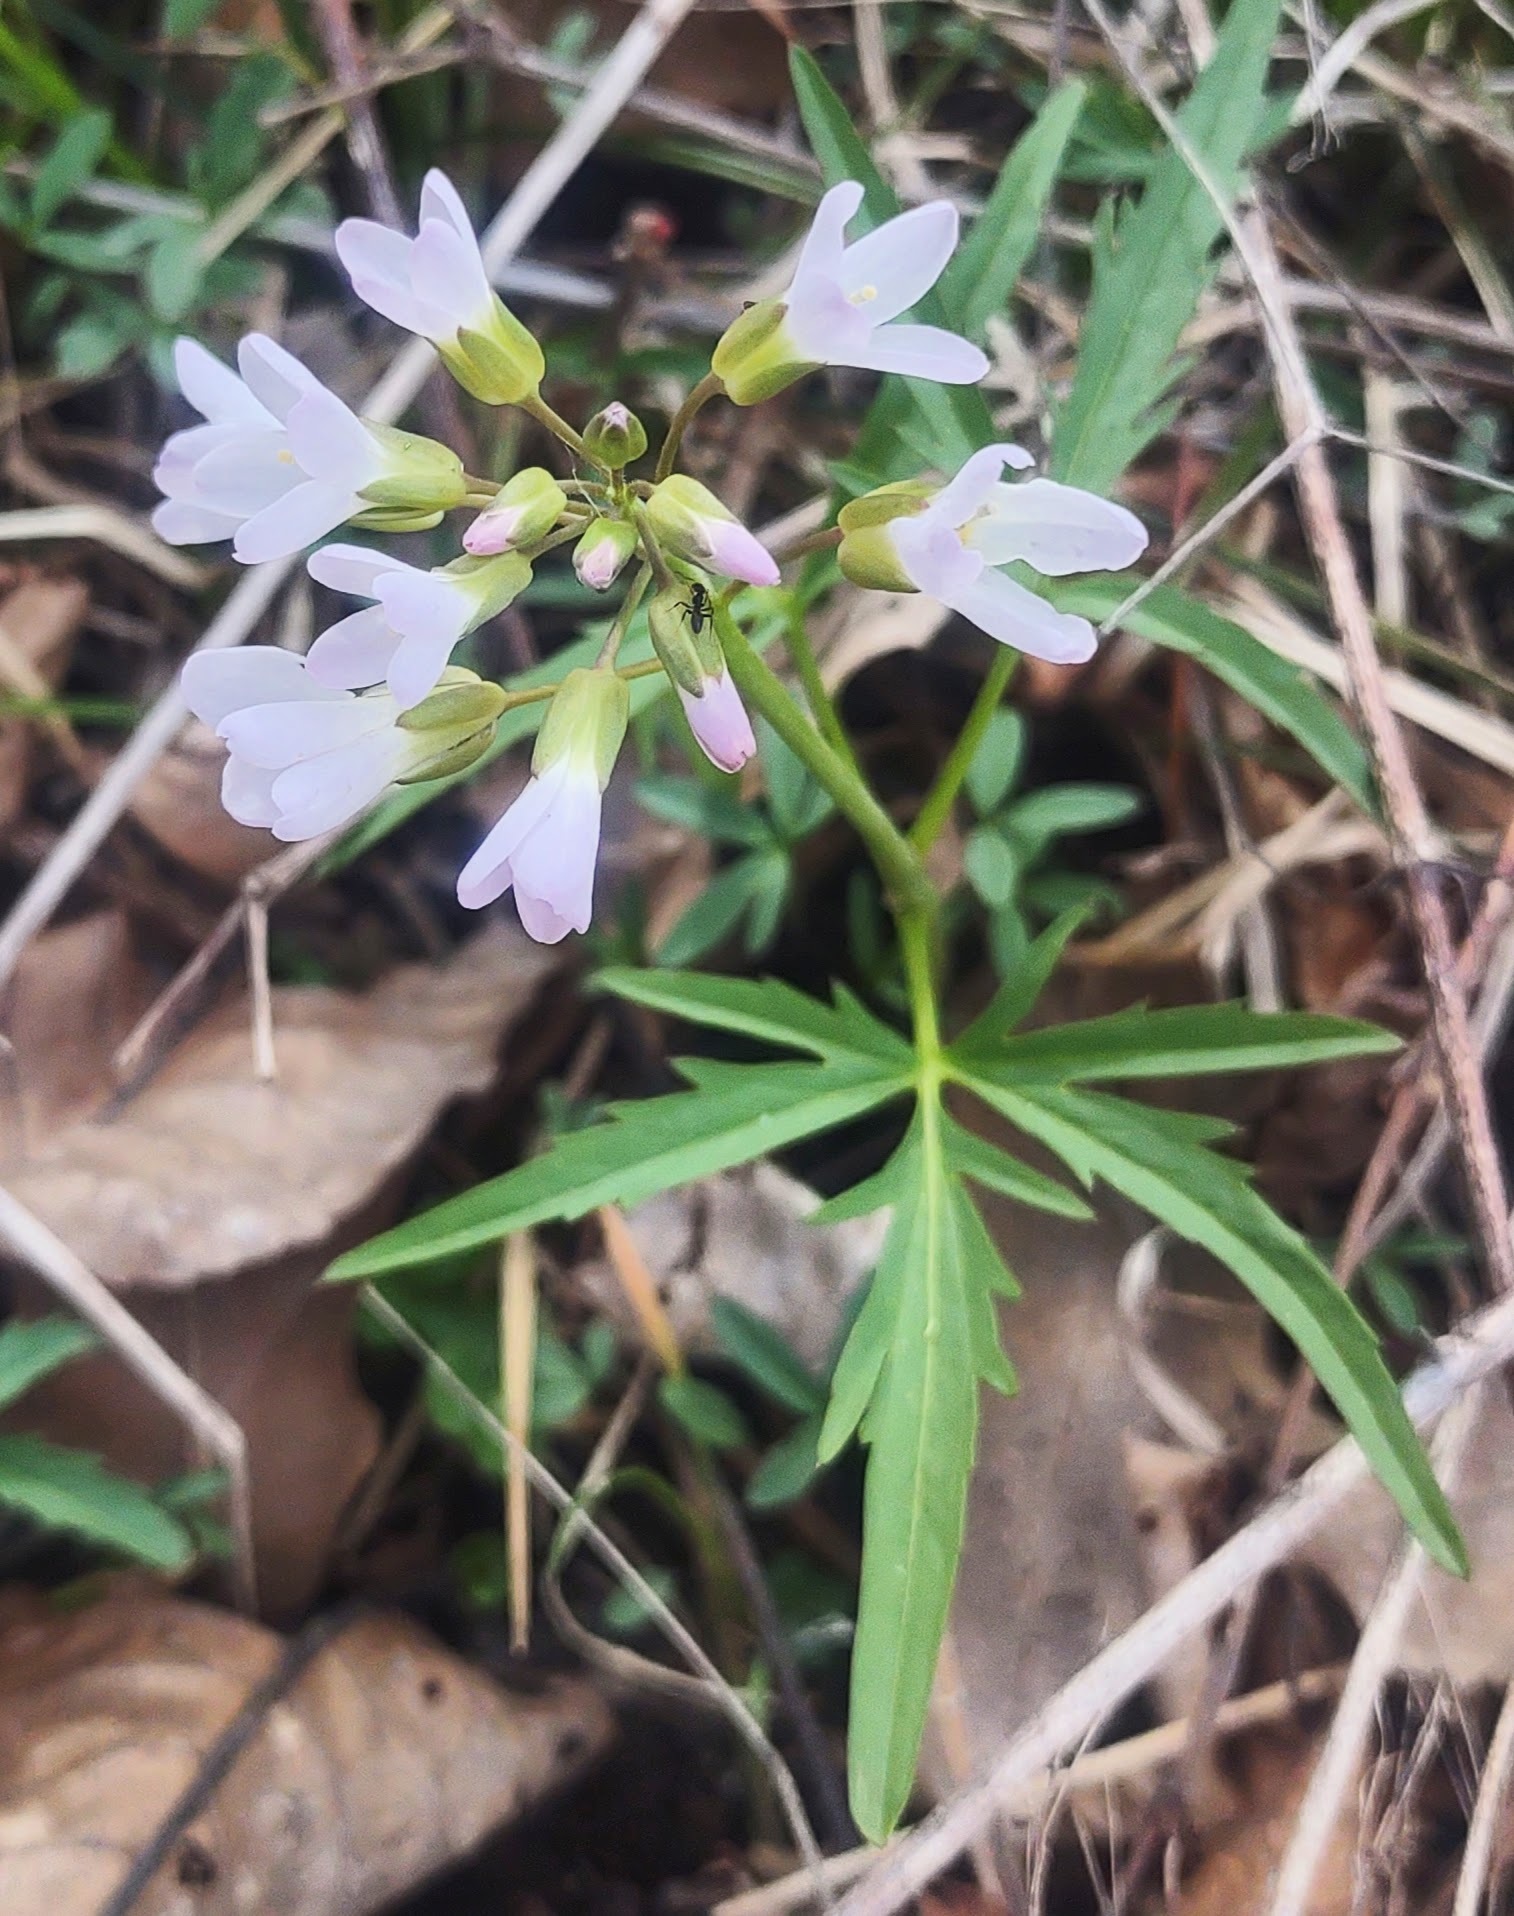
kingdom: Plantae
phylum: Tracheophyta
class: Magnoliopsida
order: Brassicales
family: Brassicaceae
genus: Cardamine
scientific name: Cardamine concatenata
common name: Cut-leaf toothcup
